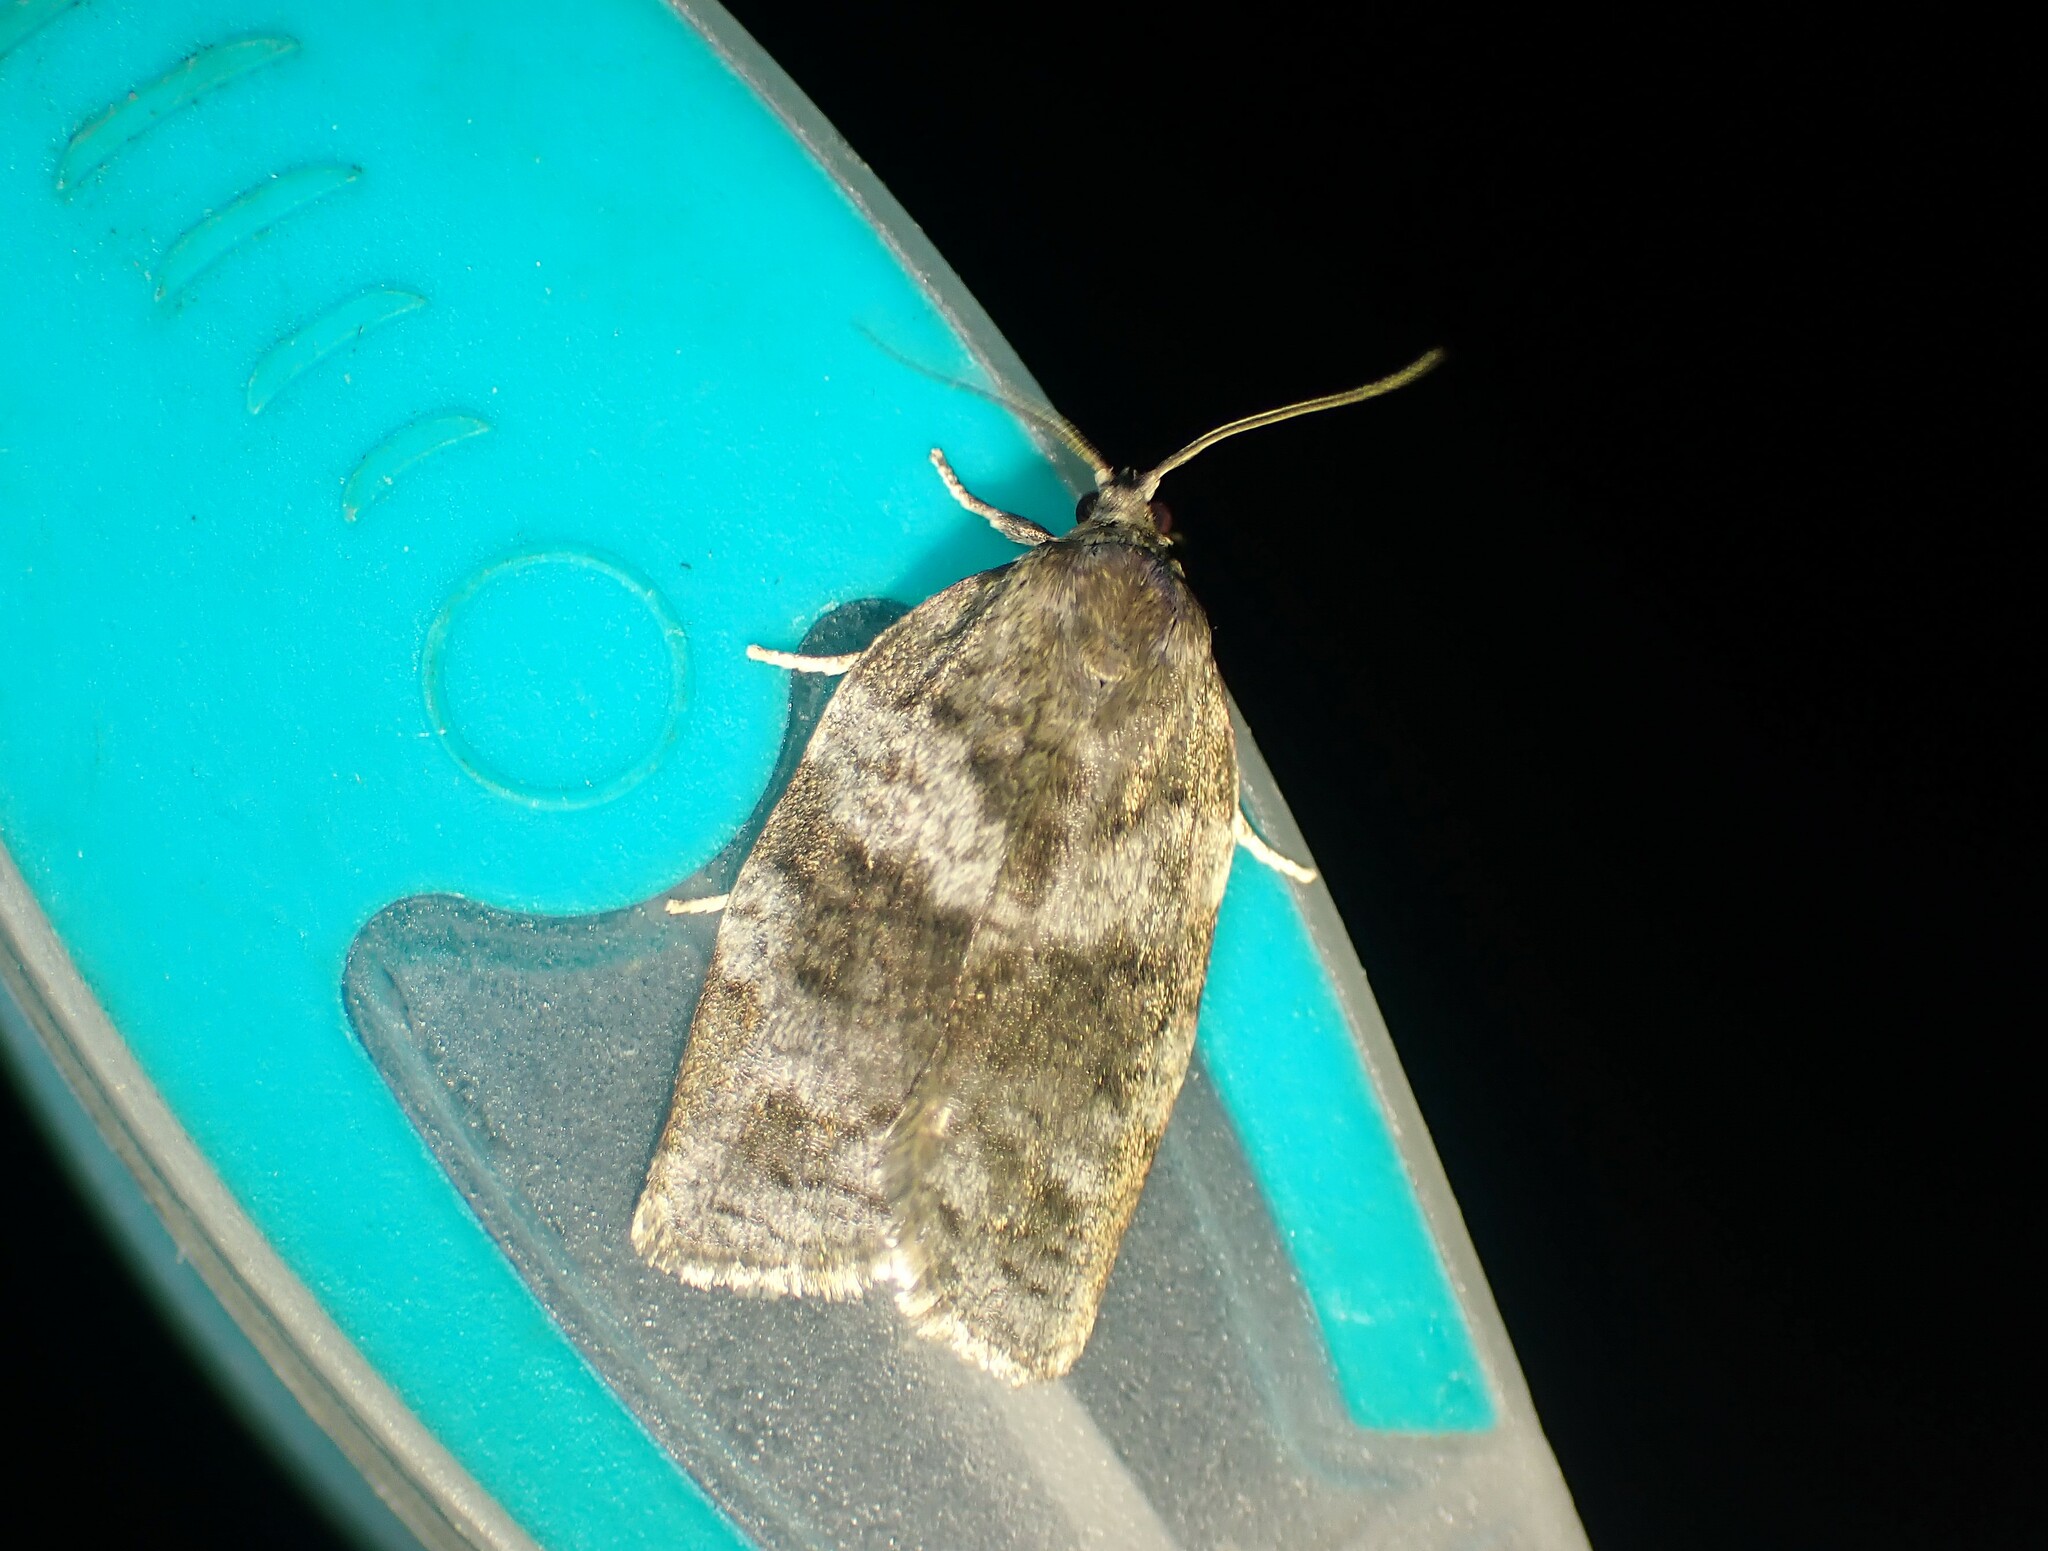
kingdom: Animalia
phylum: Arthropoda
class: Insecta
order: Lepidoptera
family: Tortricidae
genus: Choristoneura
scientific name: Choristoneura conflictana
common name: Large aspen tortrix
